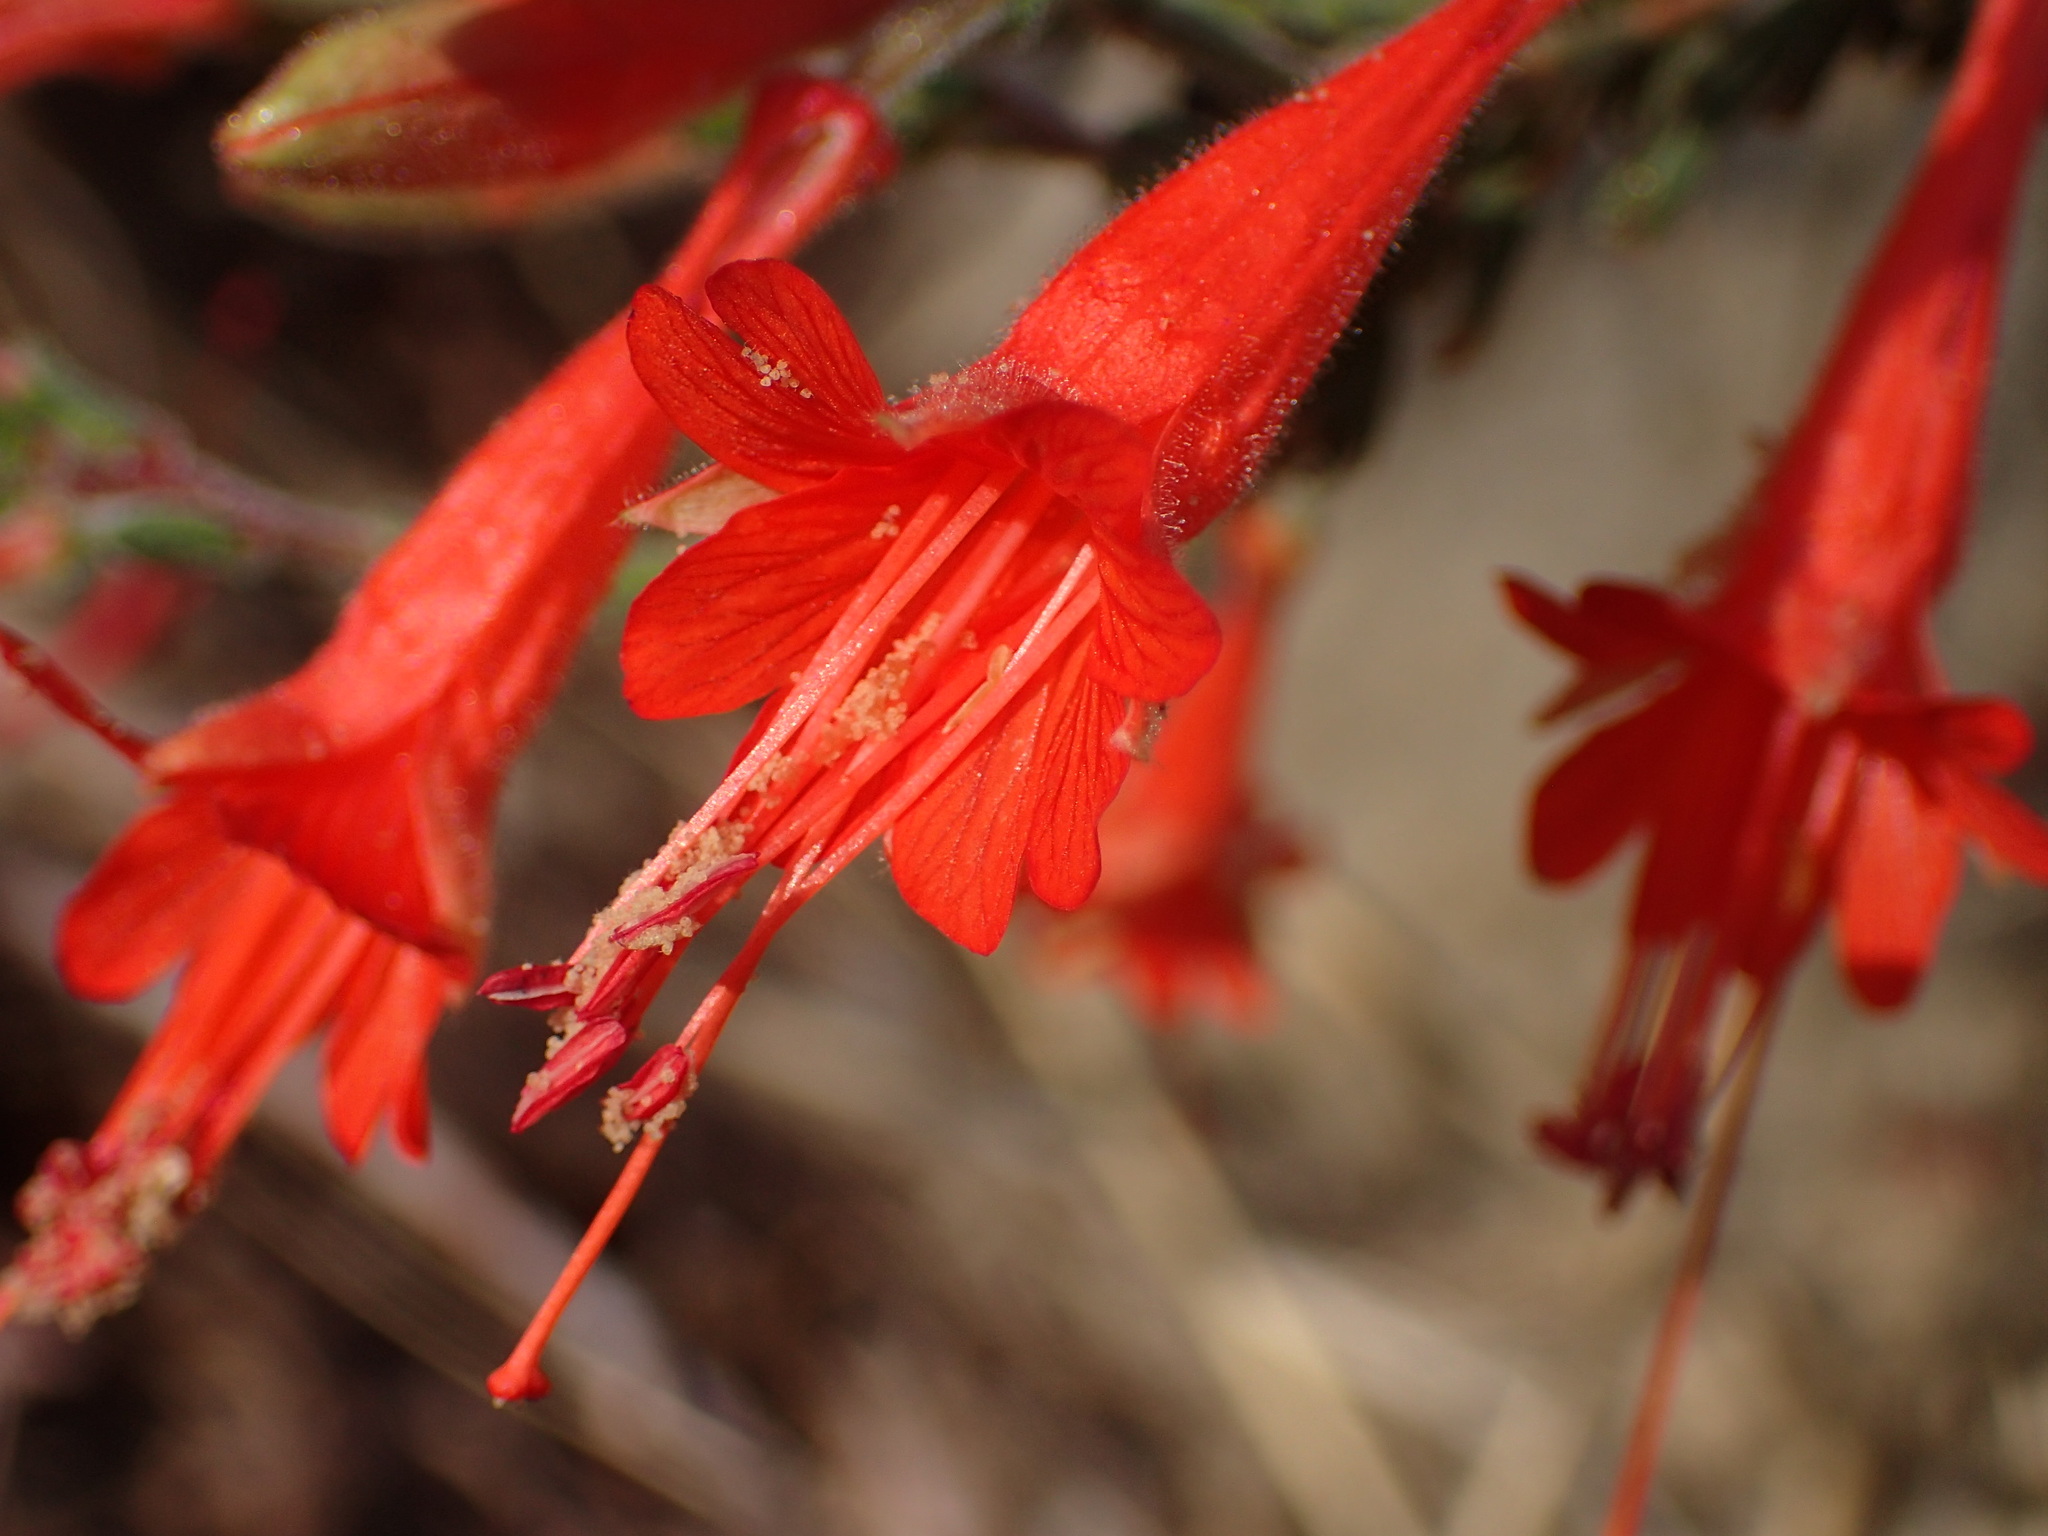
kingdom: Plantae
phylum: Tracheophyta
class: Magnoliopsida
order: Myrtales
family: Onagraceae
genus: Epilobium
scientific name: Epilobium canum
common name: California-fuchsia
